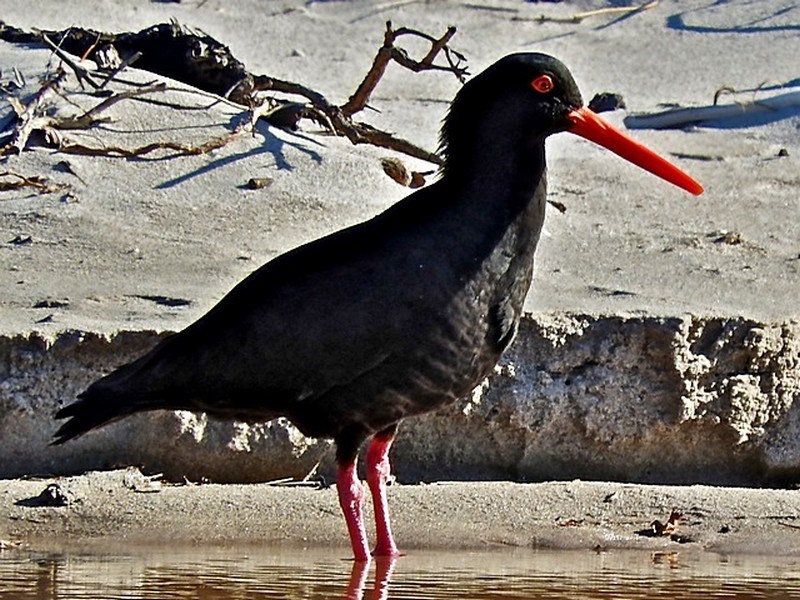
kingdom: Animalia
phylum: Chordata
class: Aves
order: Charadriiformes
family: Haematopodidae
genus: Haematopus
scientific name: Haematopus fuliginosus
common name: Sooty oystercatcher
